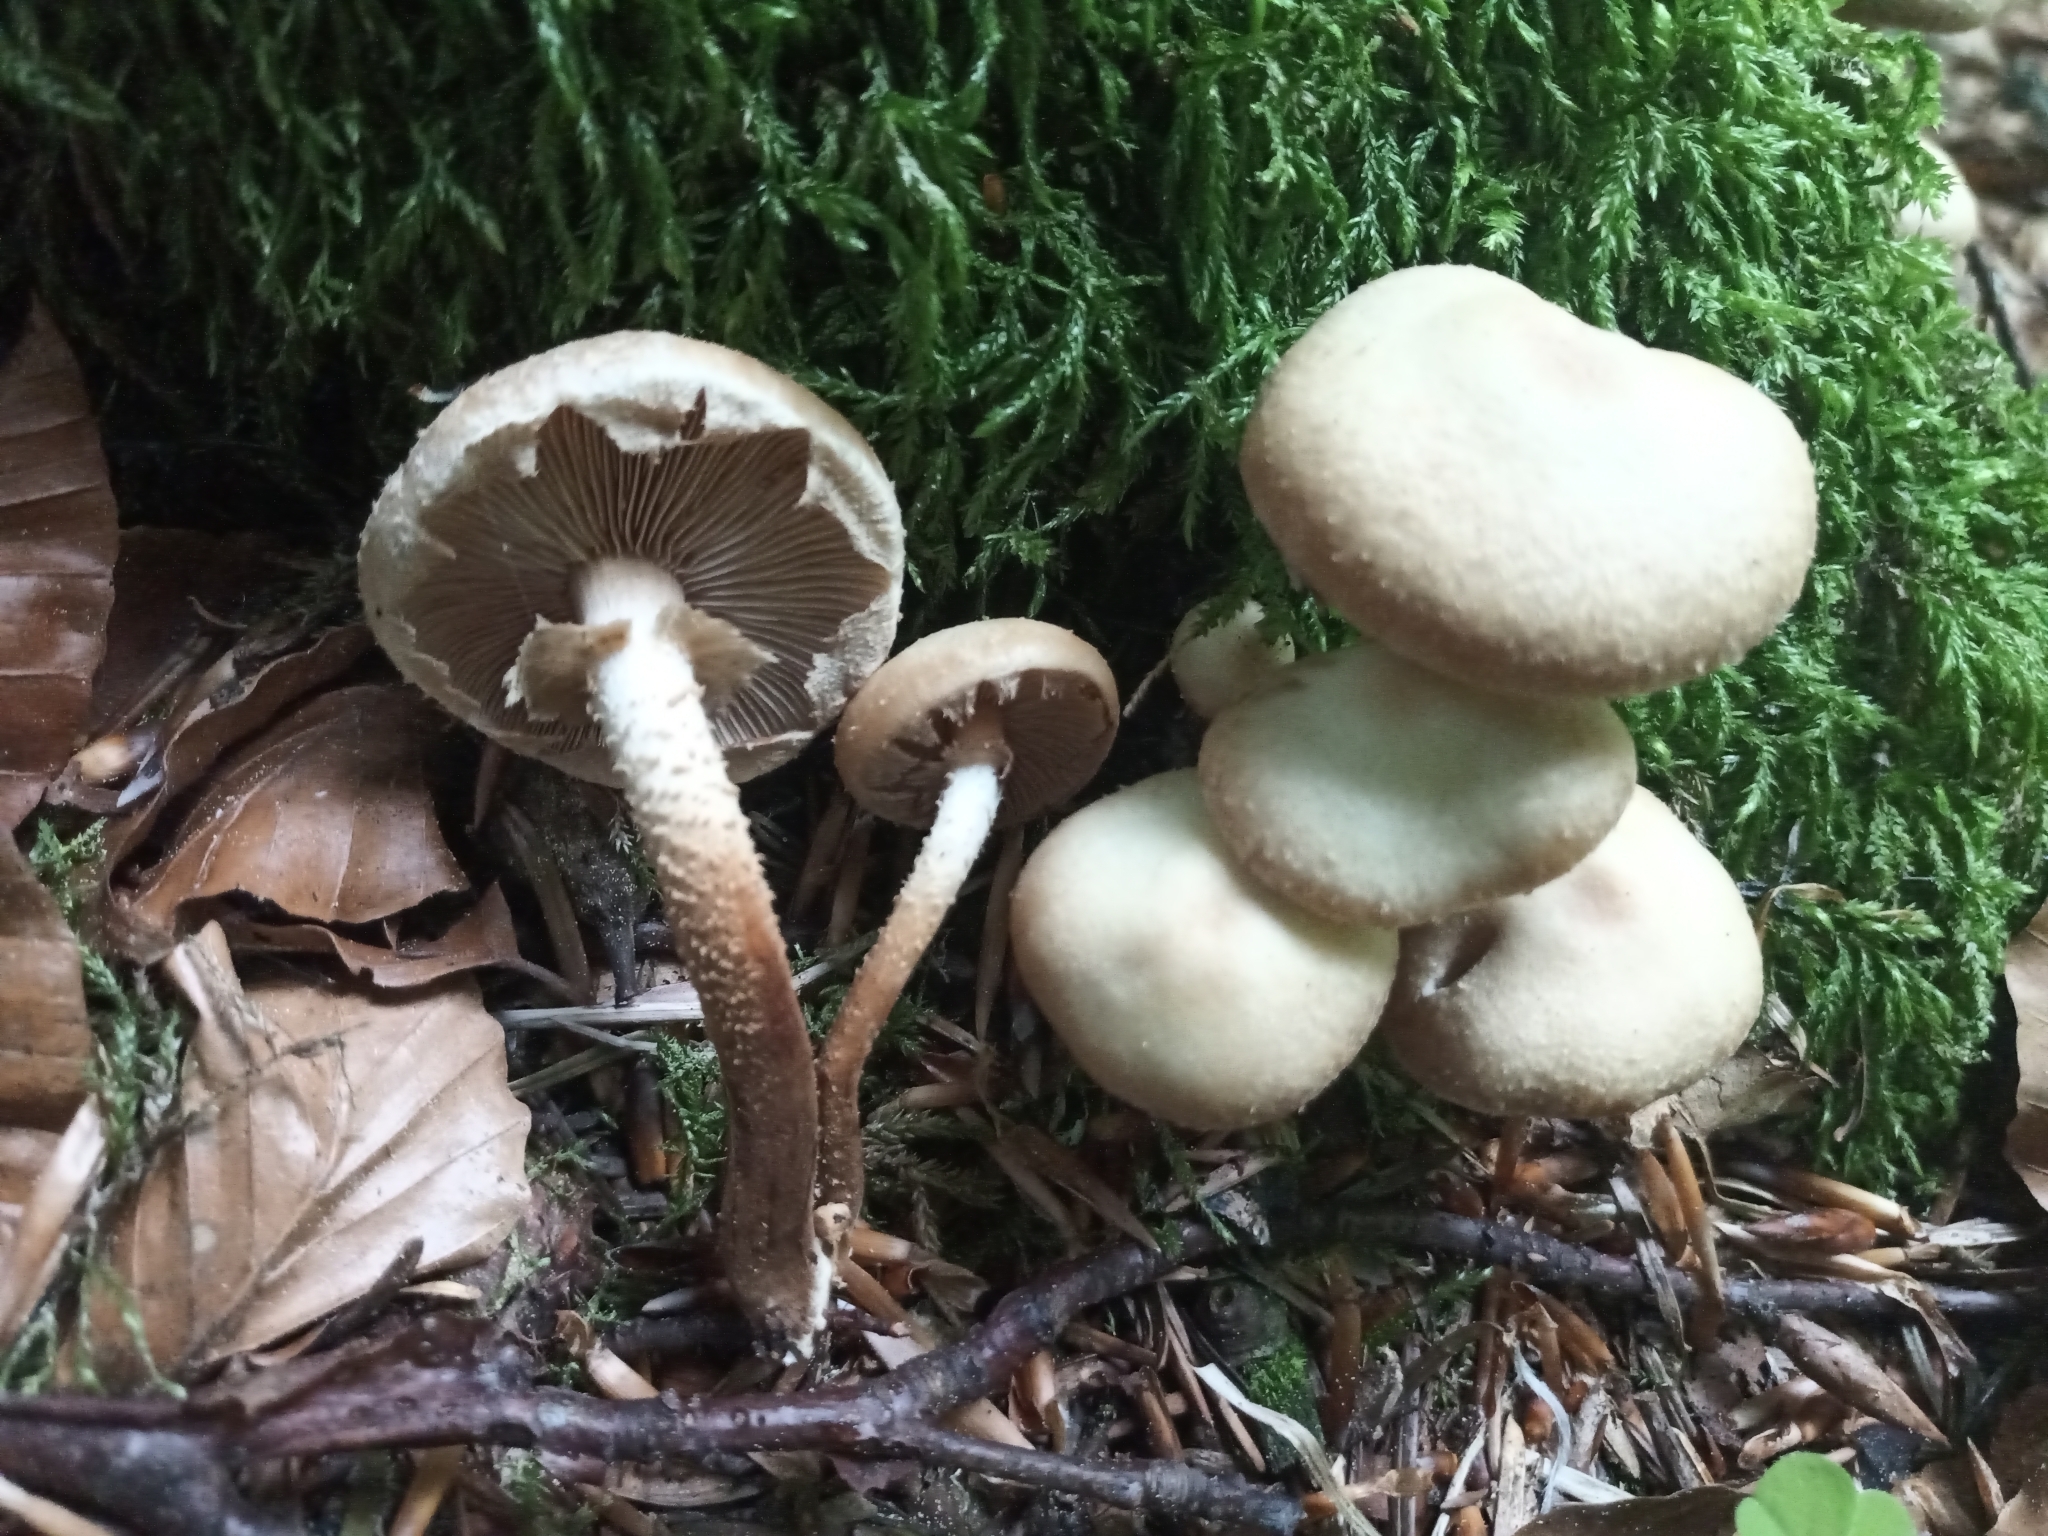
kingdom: Fungi
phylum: Basidiomycota
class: Agaricomycetes
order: Agaricales
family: Strophariaceae
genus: Kuehneromyces
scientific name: Kuehneromyces mutabilis
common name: Sheathed woodtuft
